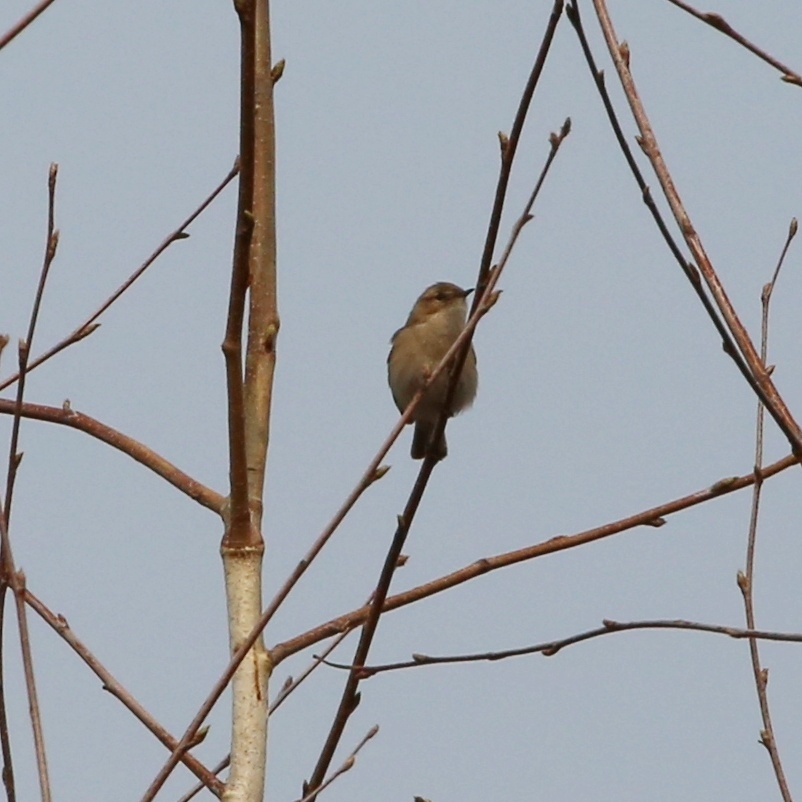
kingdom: Animalia
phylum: Chordata
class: Aves
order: Passeriformes
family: Phylloscopidae
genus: Phylloscopus
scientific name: Phylloscopus collybita
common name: Common chiffchaff
